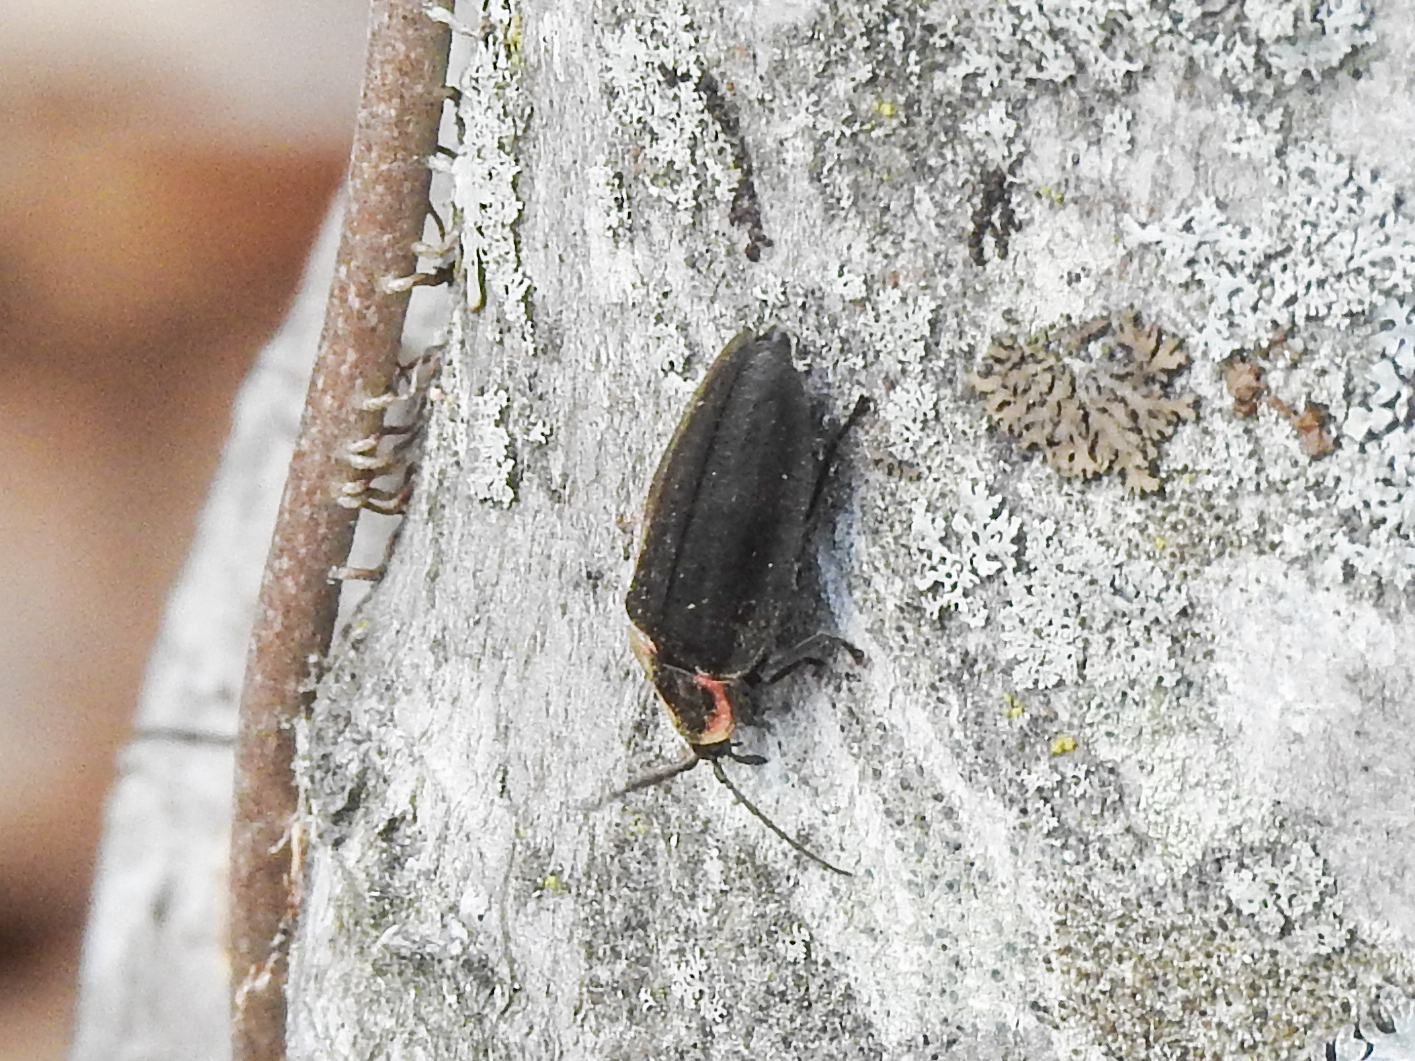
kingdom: Animalia
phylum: Arthropoda
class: Insecta
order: Coleoptera
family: Lampyridae
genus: Photinus
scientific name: Photinus corrusca
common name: Winter firefly
